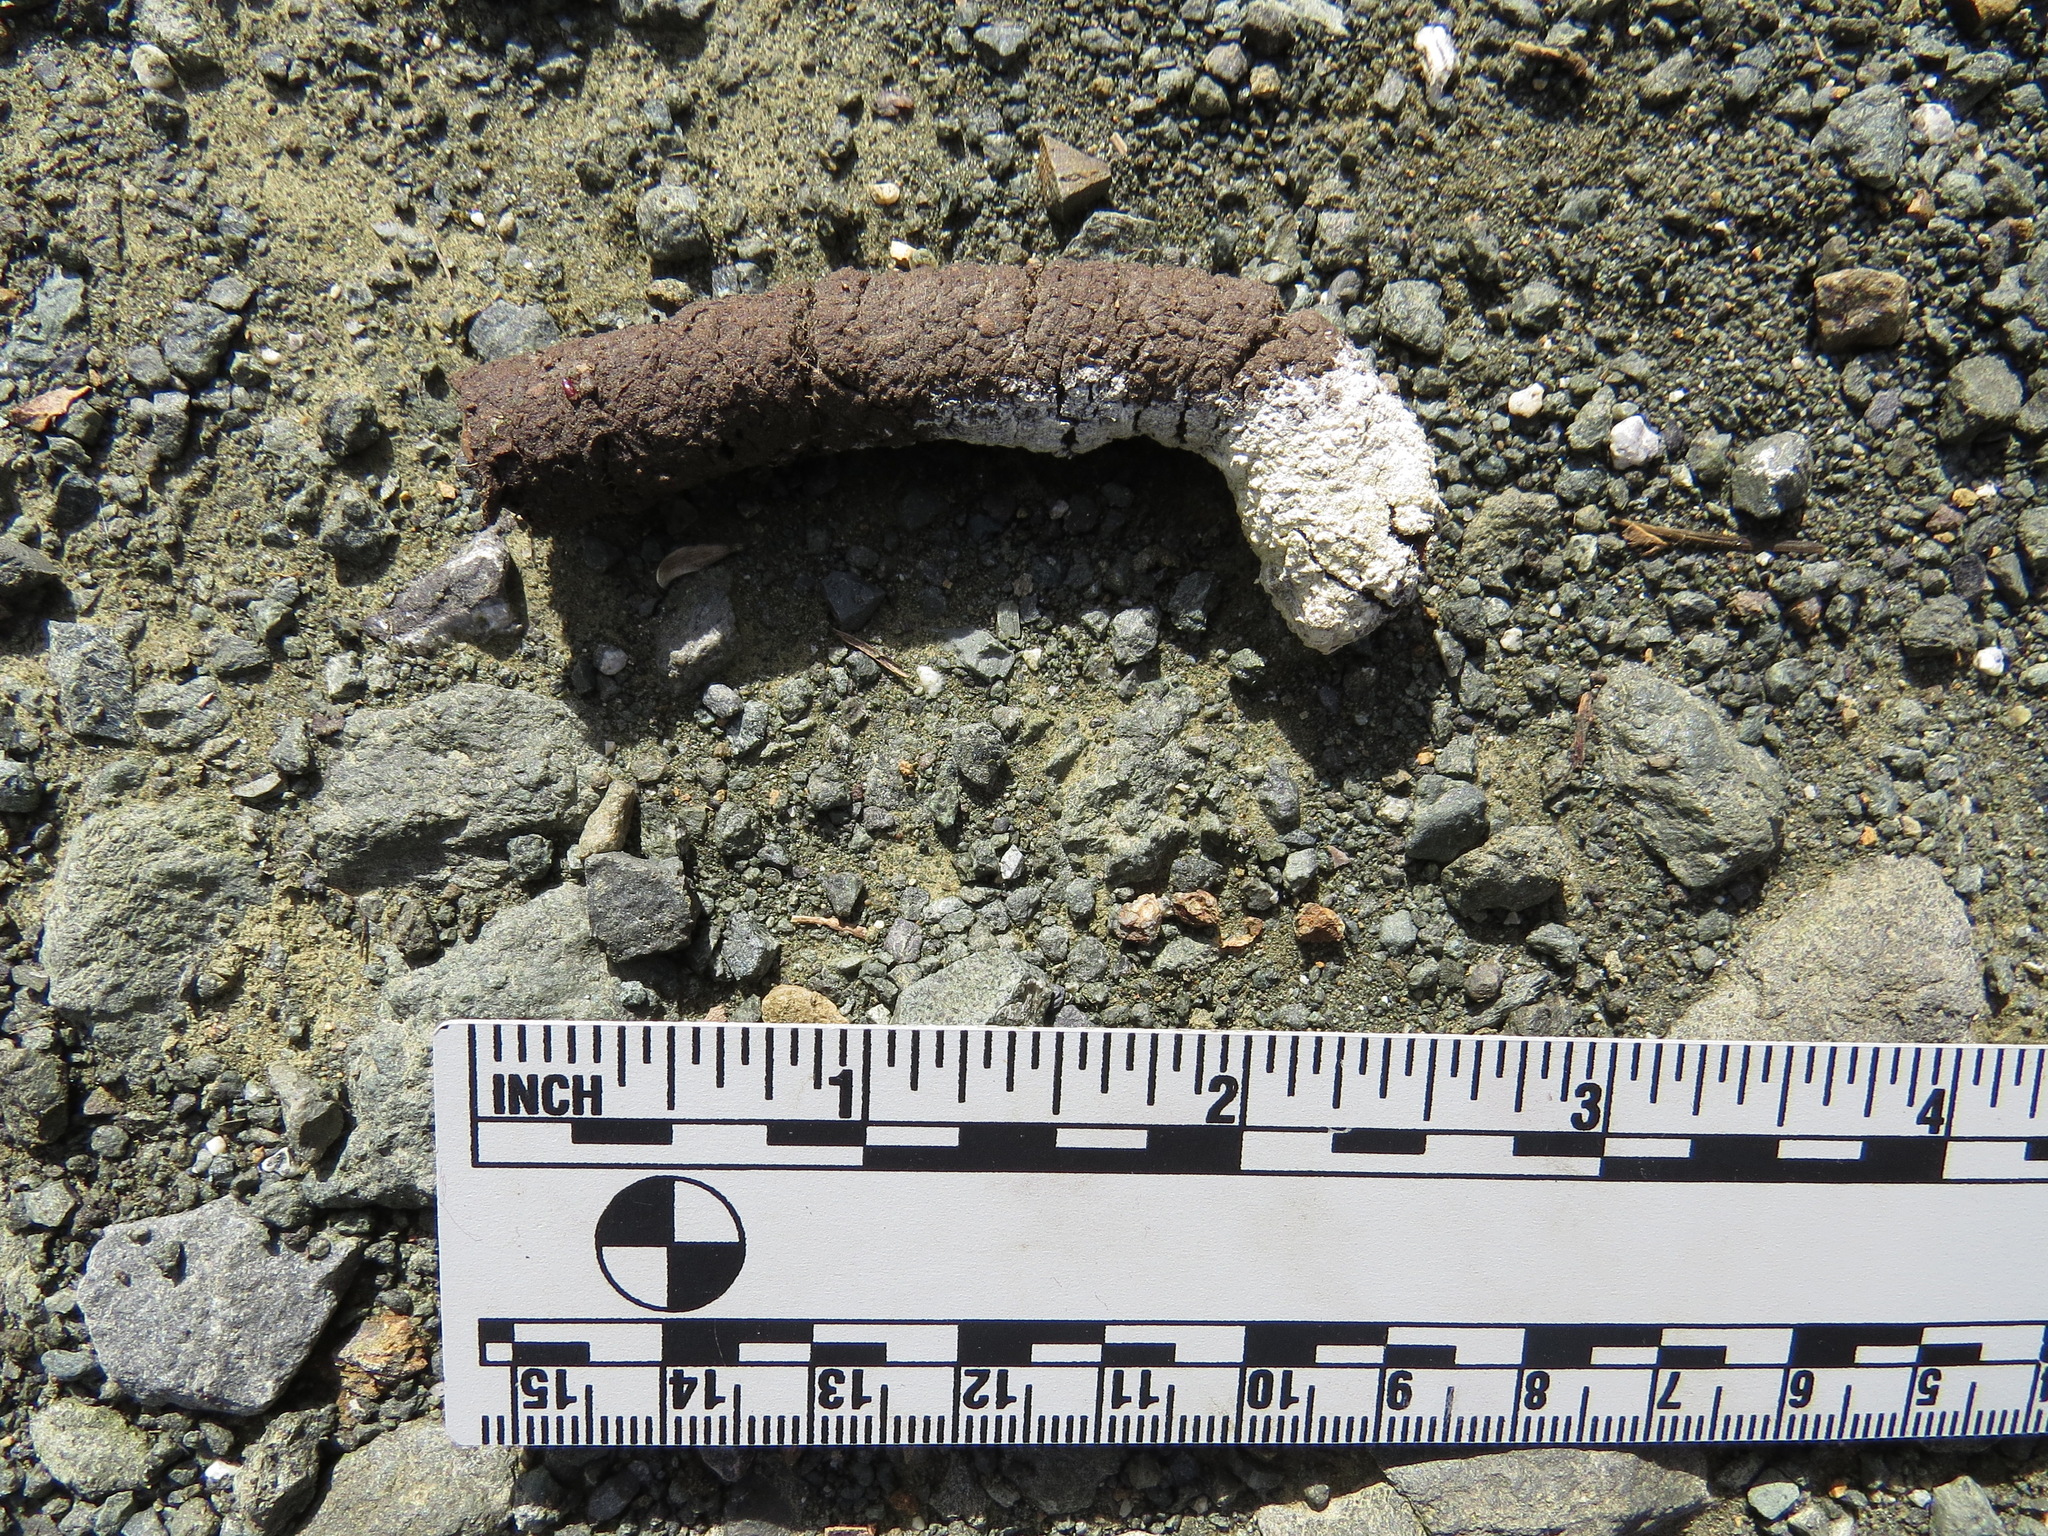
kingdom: Animalia
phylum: Chordata
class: Aves
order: Galliformes
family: Phasianidae
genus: Meleagris
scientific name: Meleagris gallopavo
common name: Wild turkey
